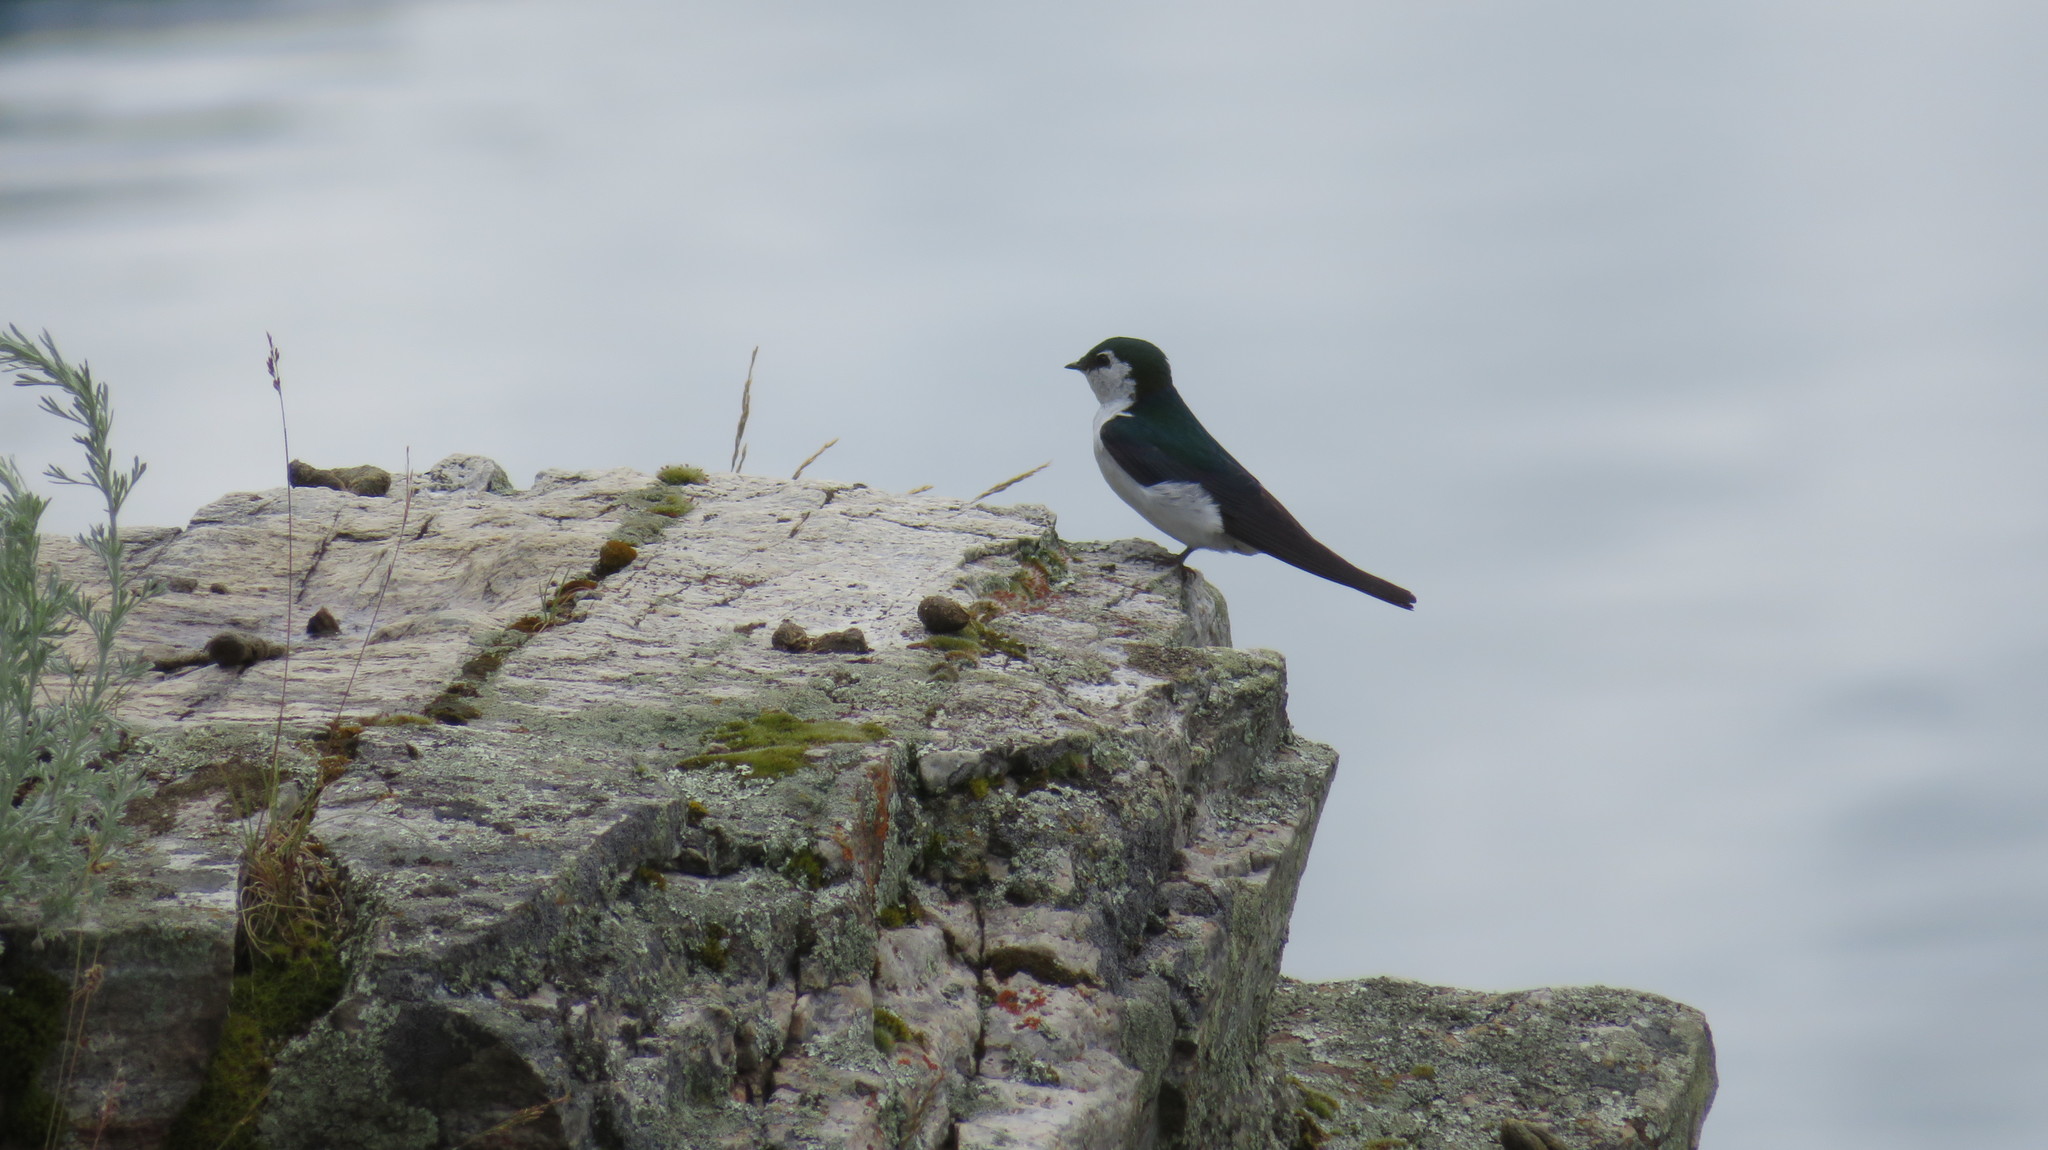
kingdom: Animalia
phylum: Chordata
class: Aves
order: Passeriformes
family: Hirundinidae
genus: Tachycineta
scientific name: Tachycineta thalassina
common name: Violet-green swallow
